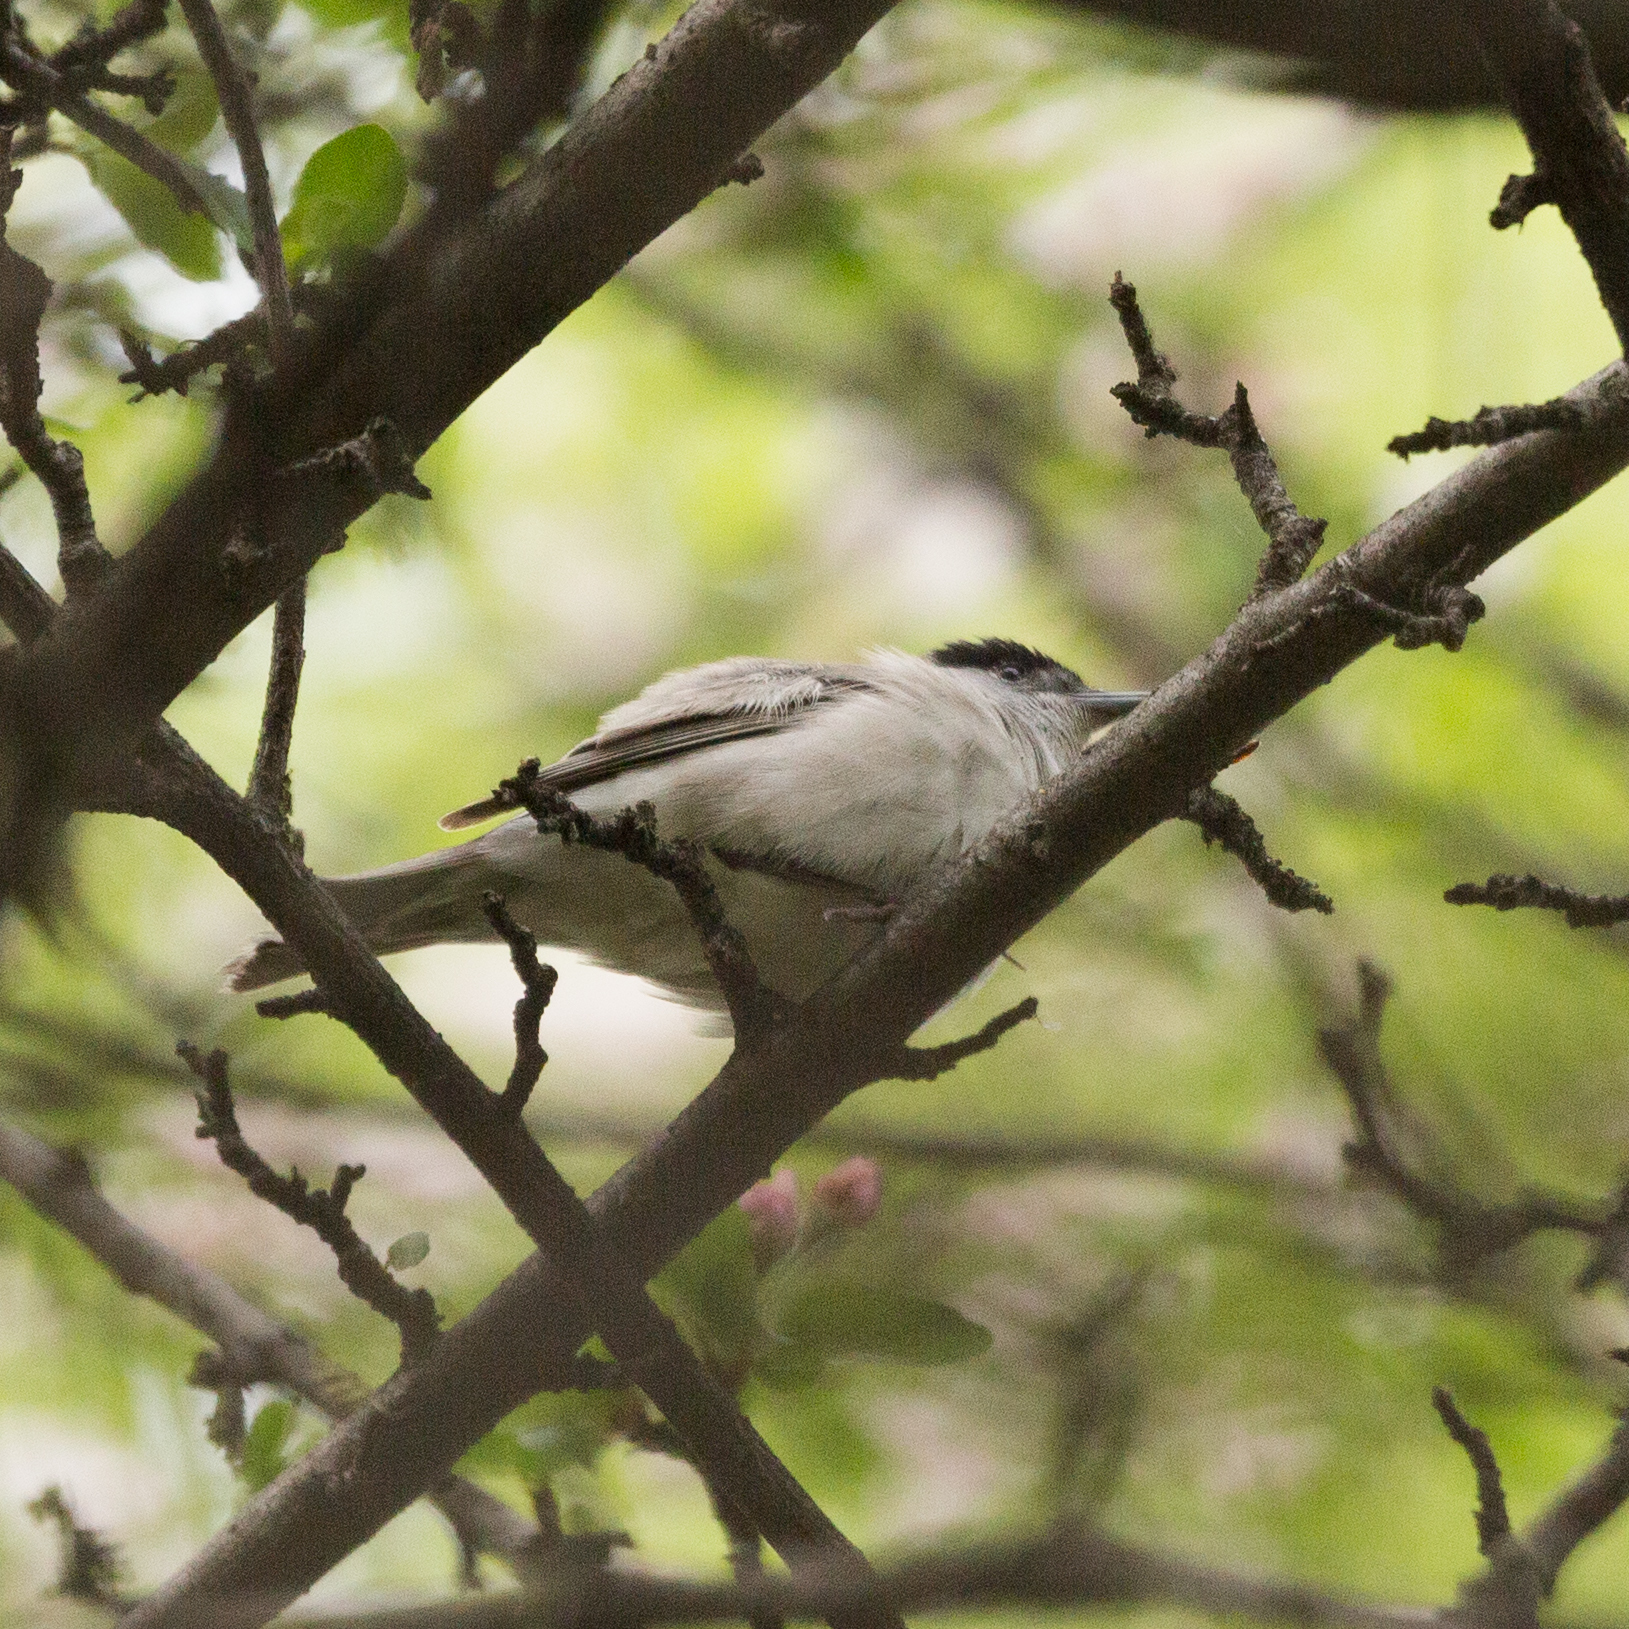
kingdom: Animalia
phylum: Chordata
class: Aves
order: Passeriformes
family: Sylviidae
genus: Sylvia
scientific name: Sylvia atricapilla
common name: Eurasian blackcap
